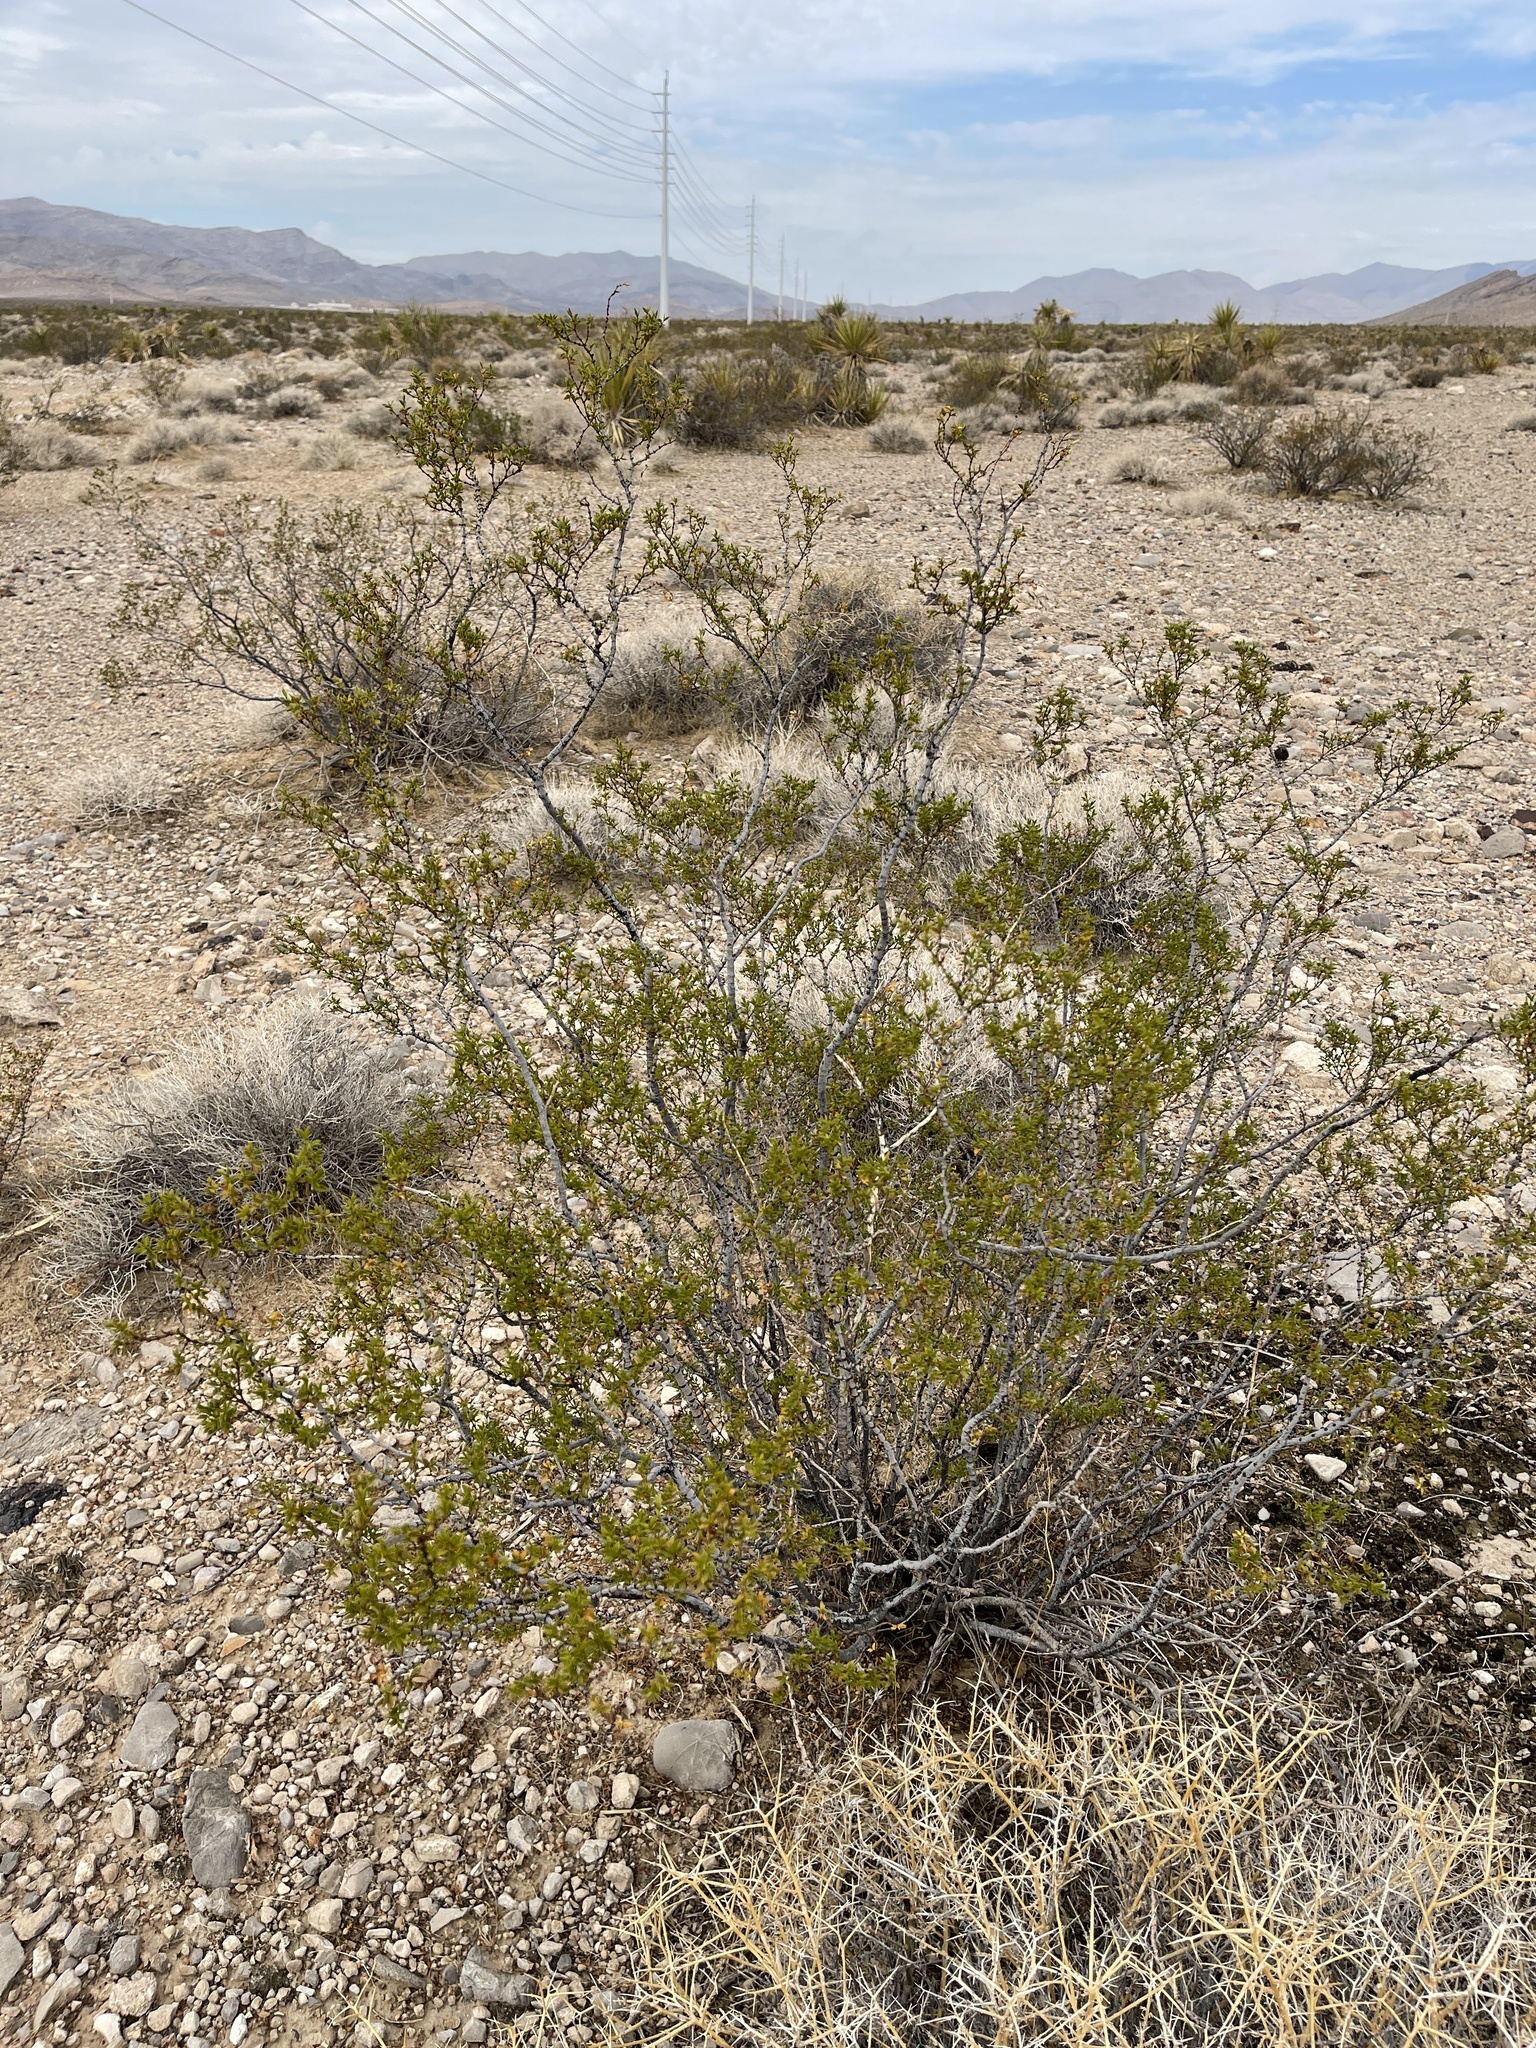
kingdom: Plantae
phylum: Tracheophyta
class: Magnoliopsida
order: Zygophyllales
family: Zygophyllaceae
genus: Larrea
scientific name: Larrea tridentata
